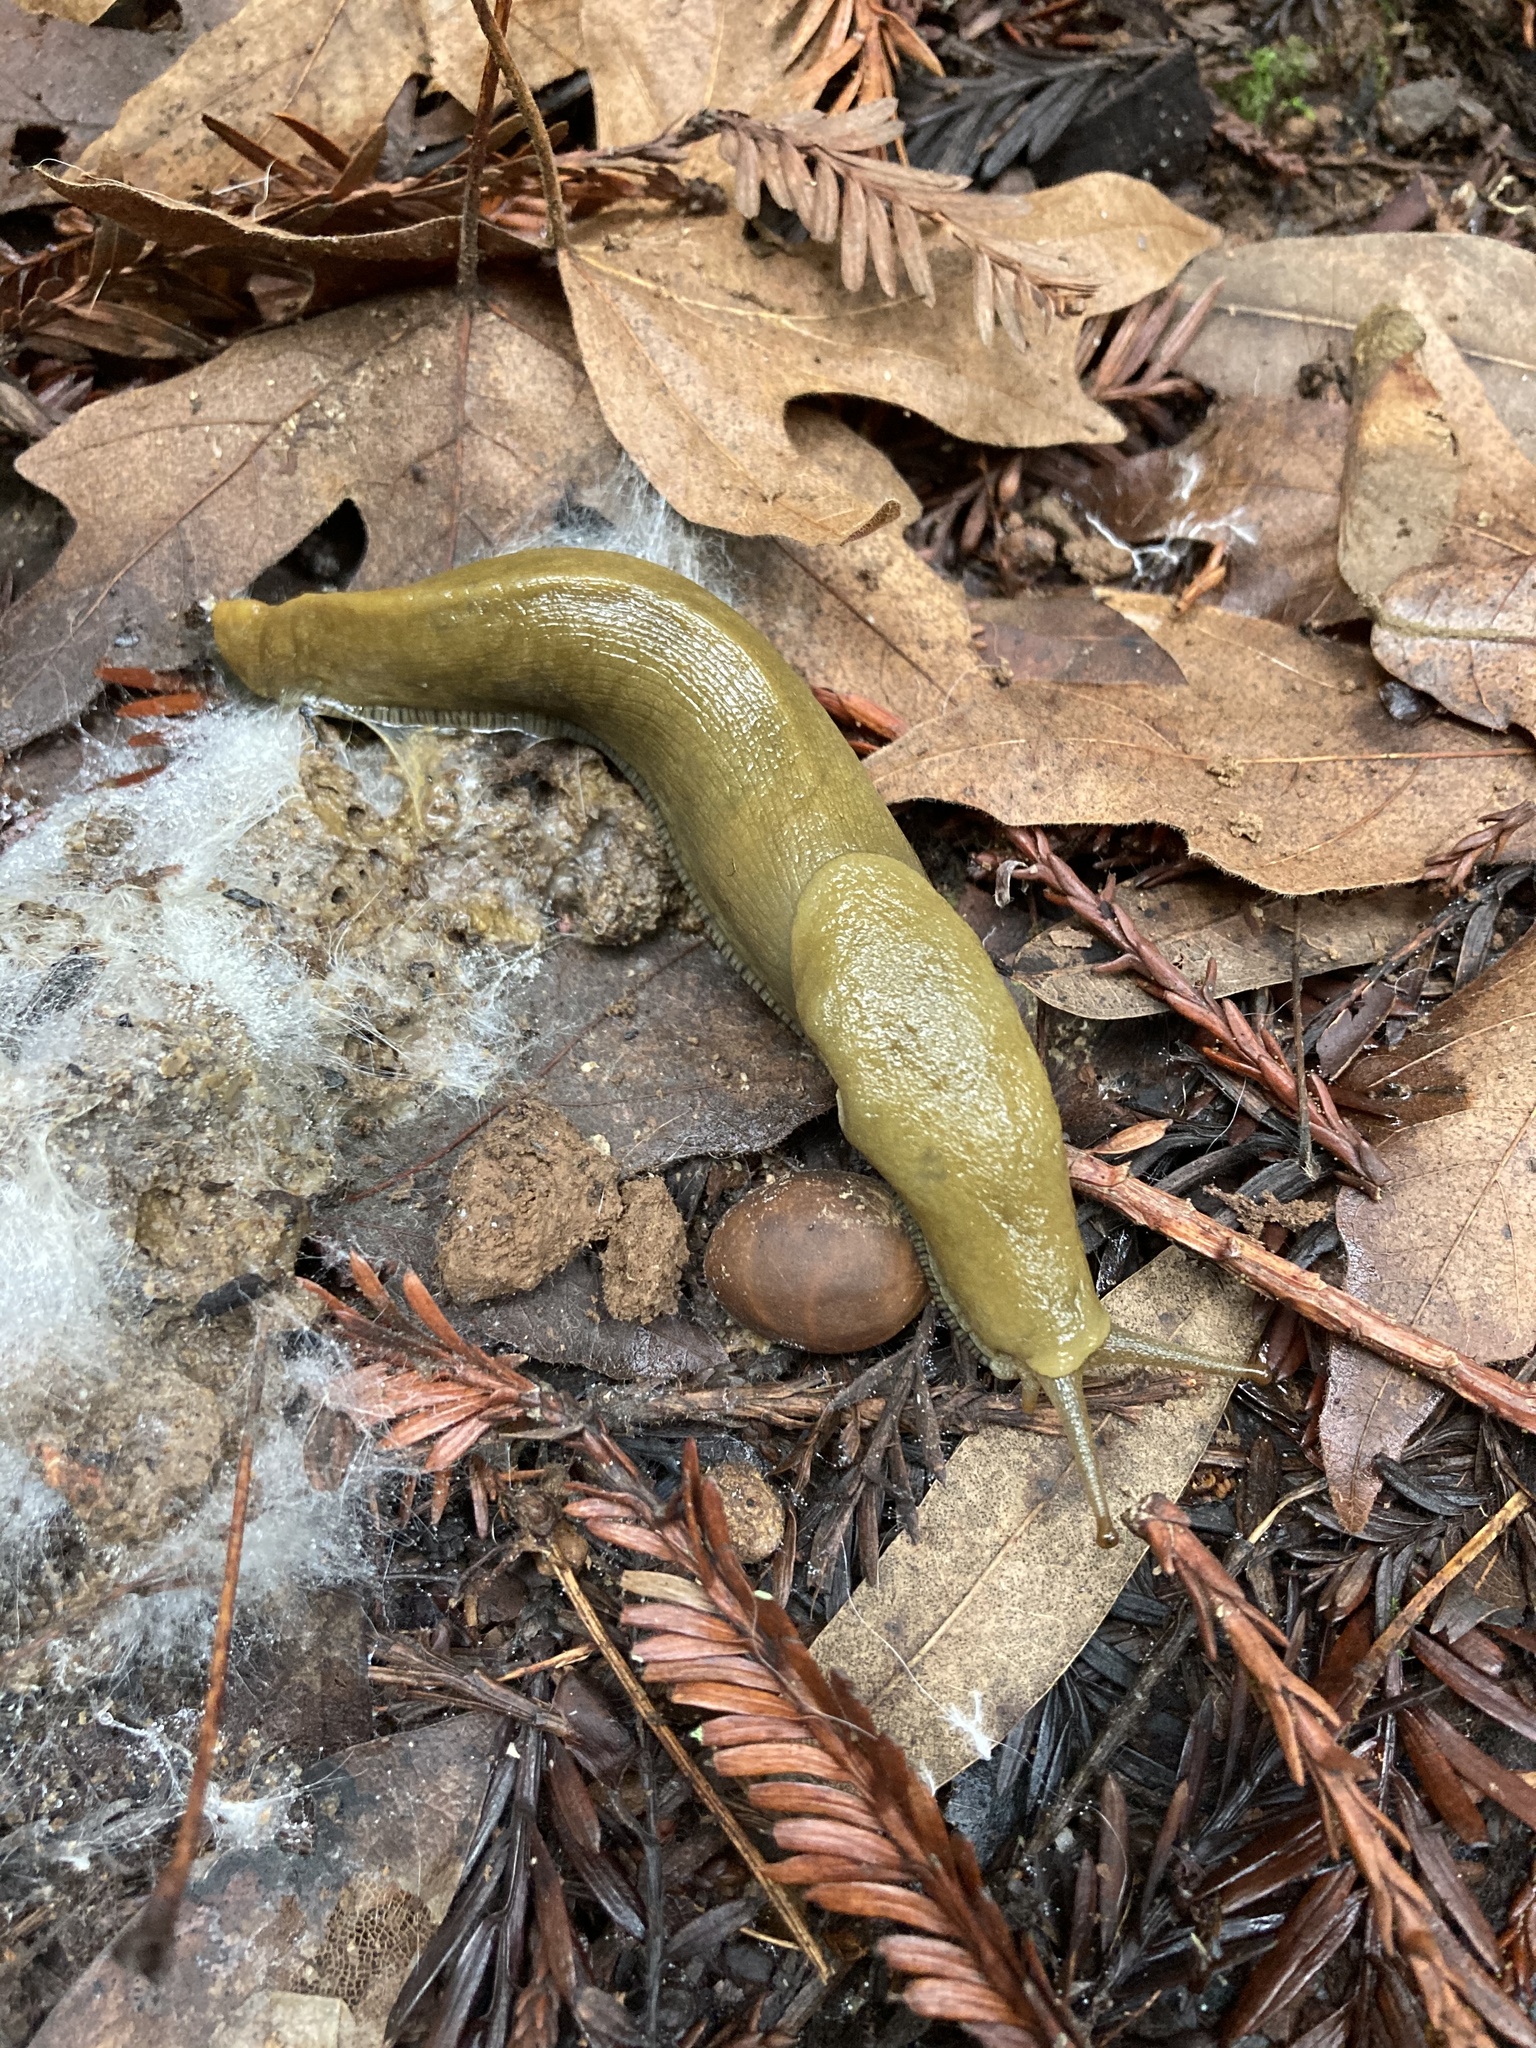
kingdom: Animalia
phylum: Mollusca
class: Gastropoda
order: Stylommatophora
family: Ariolimacidae
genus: Ariolimax
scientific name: Ariolimax buttoni
